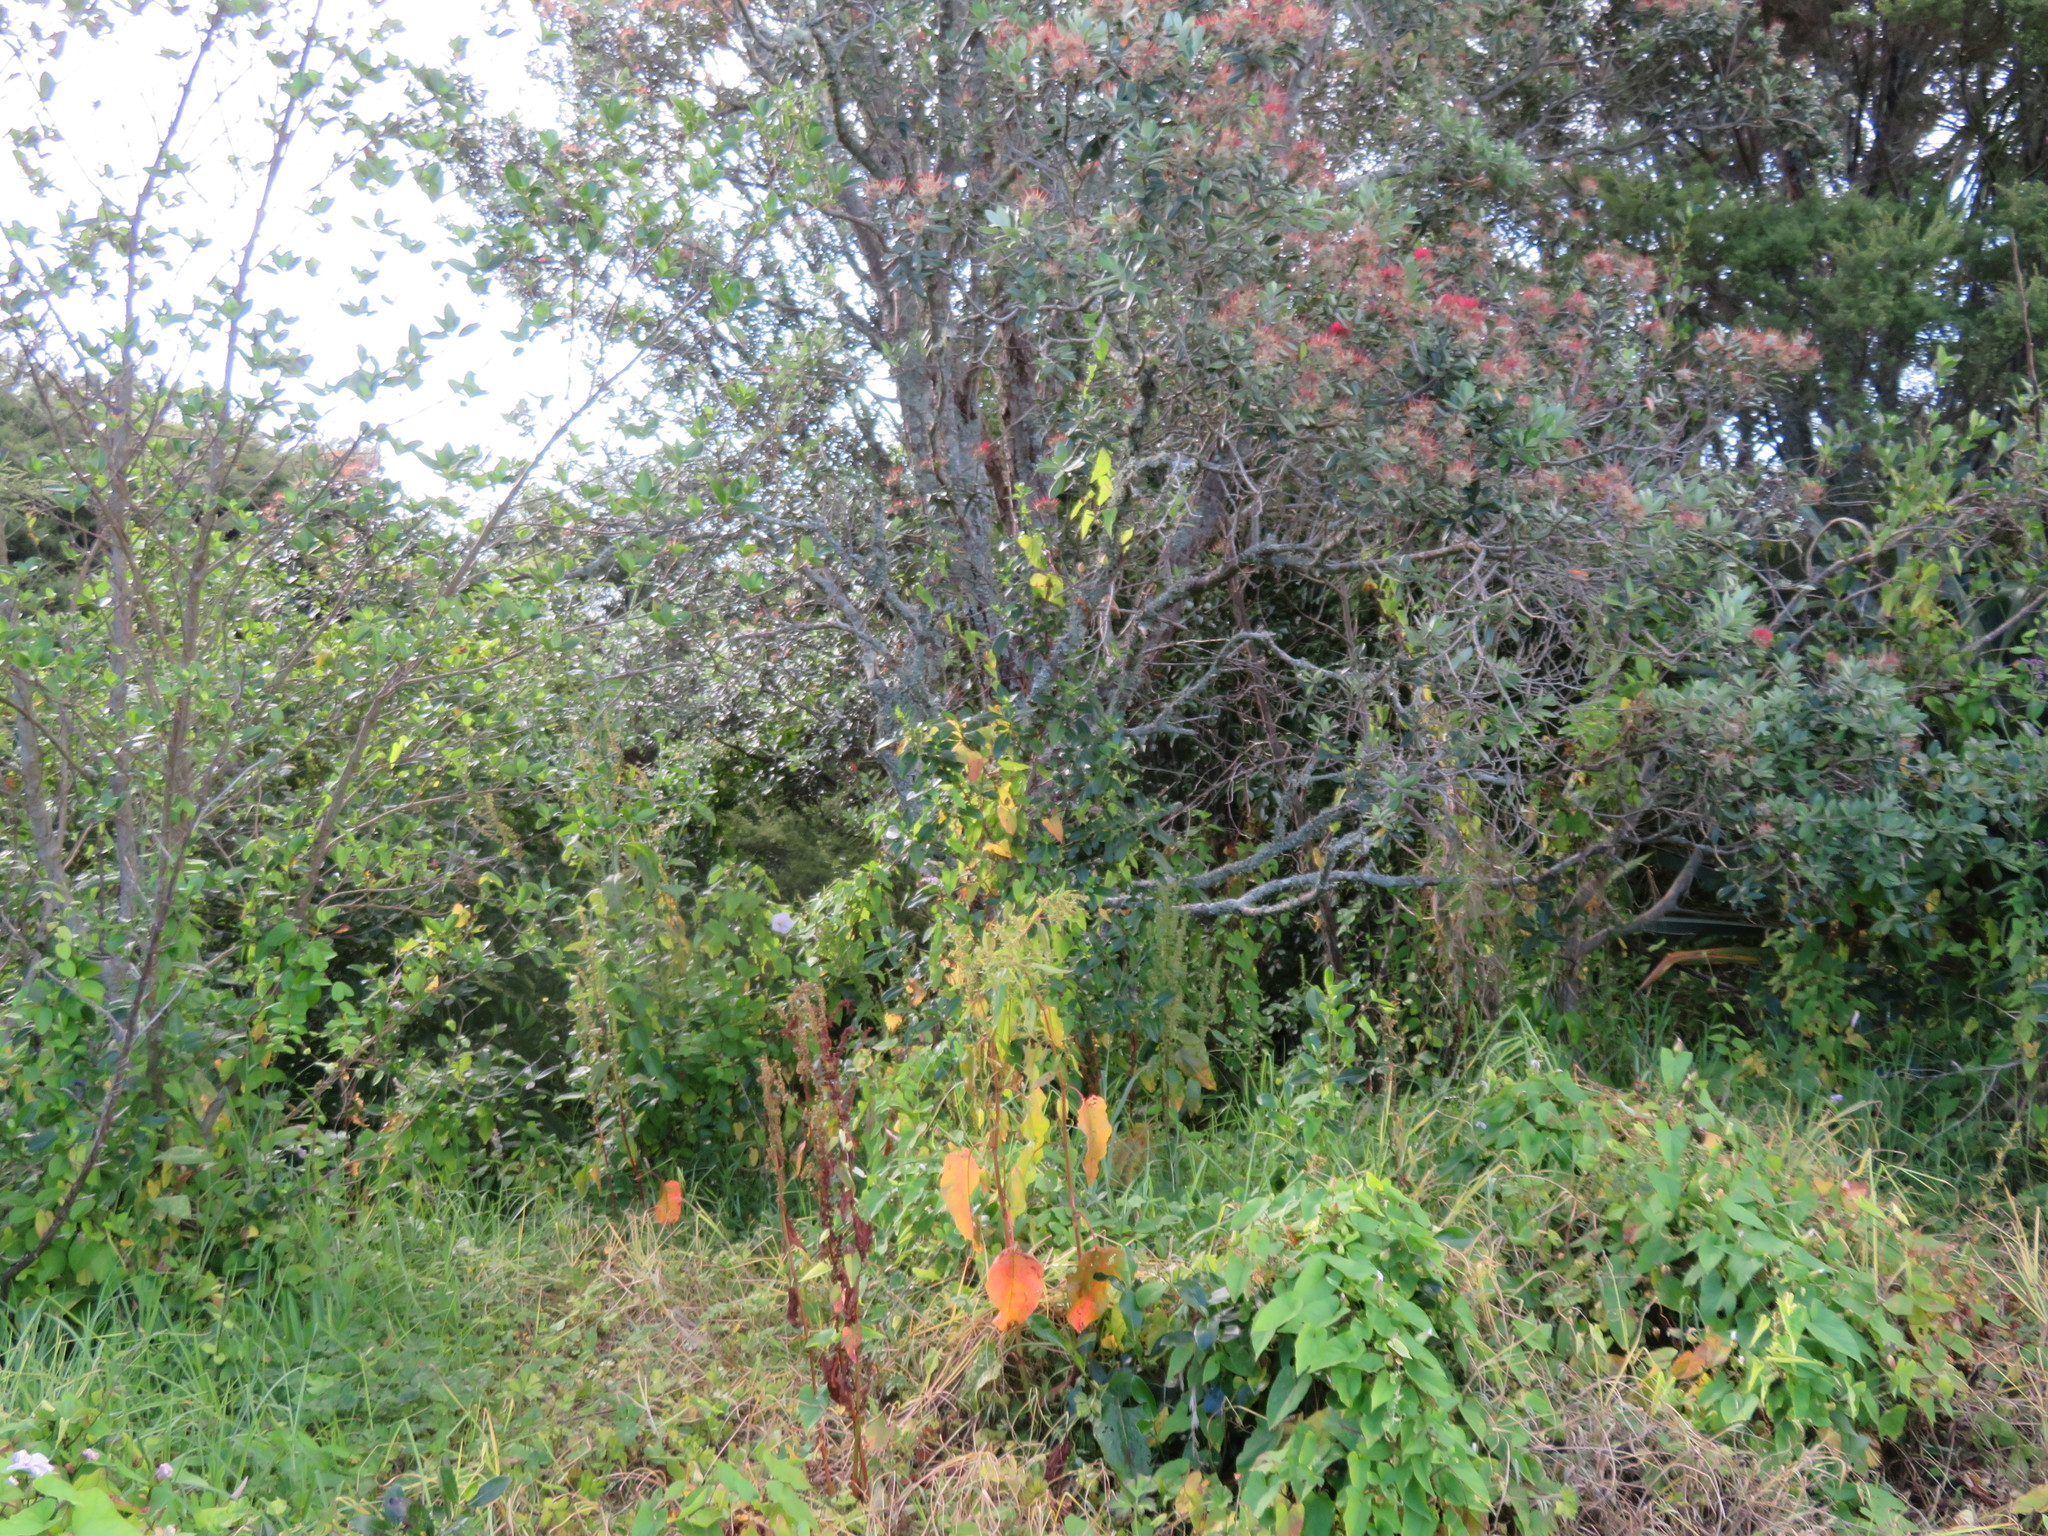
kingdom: Plantae
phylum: Tracheophyta
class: Magnoliopsida
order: Myrtales
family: Myrtaceae
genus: Metrosideros
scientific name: Metrosideros excelsa
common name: New zealand christmastree
